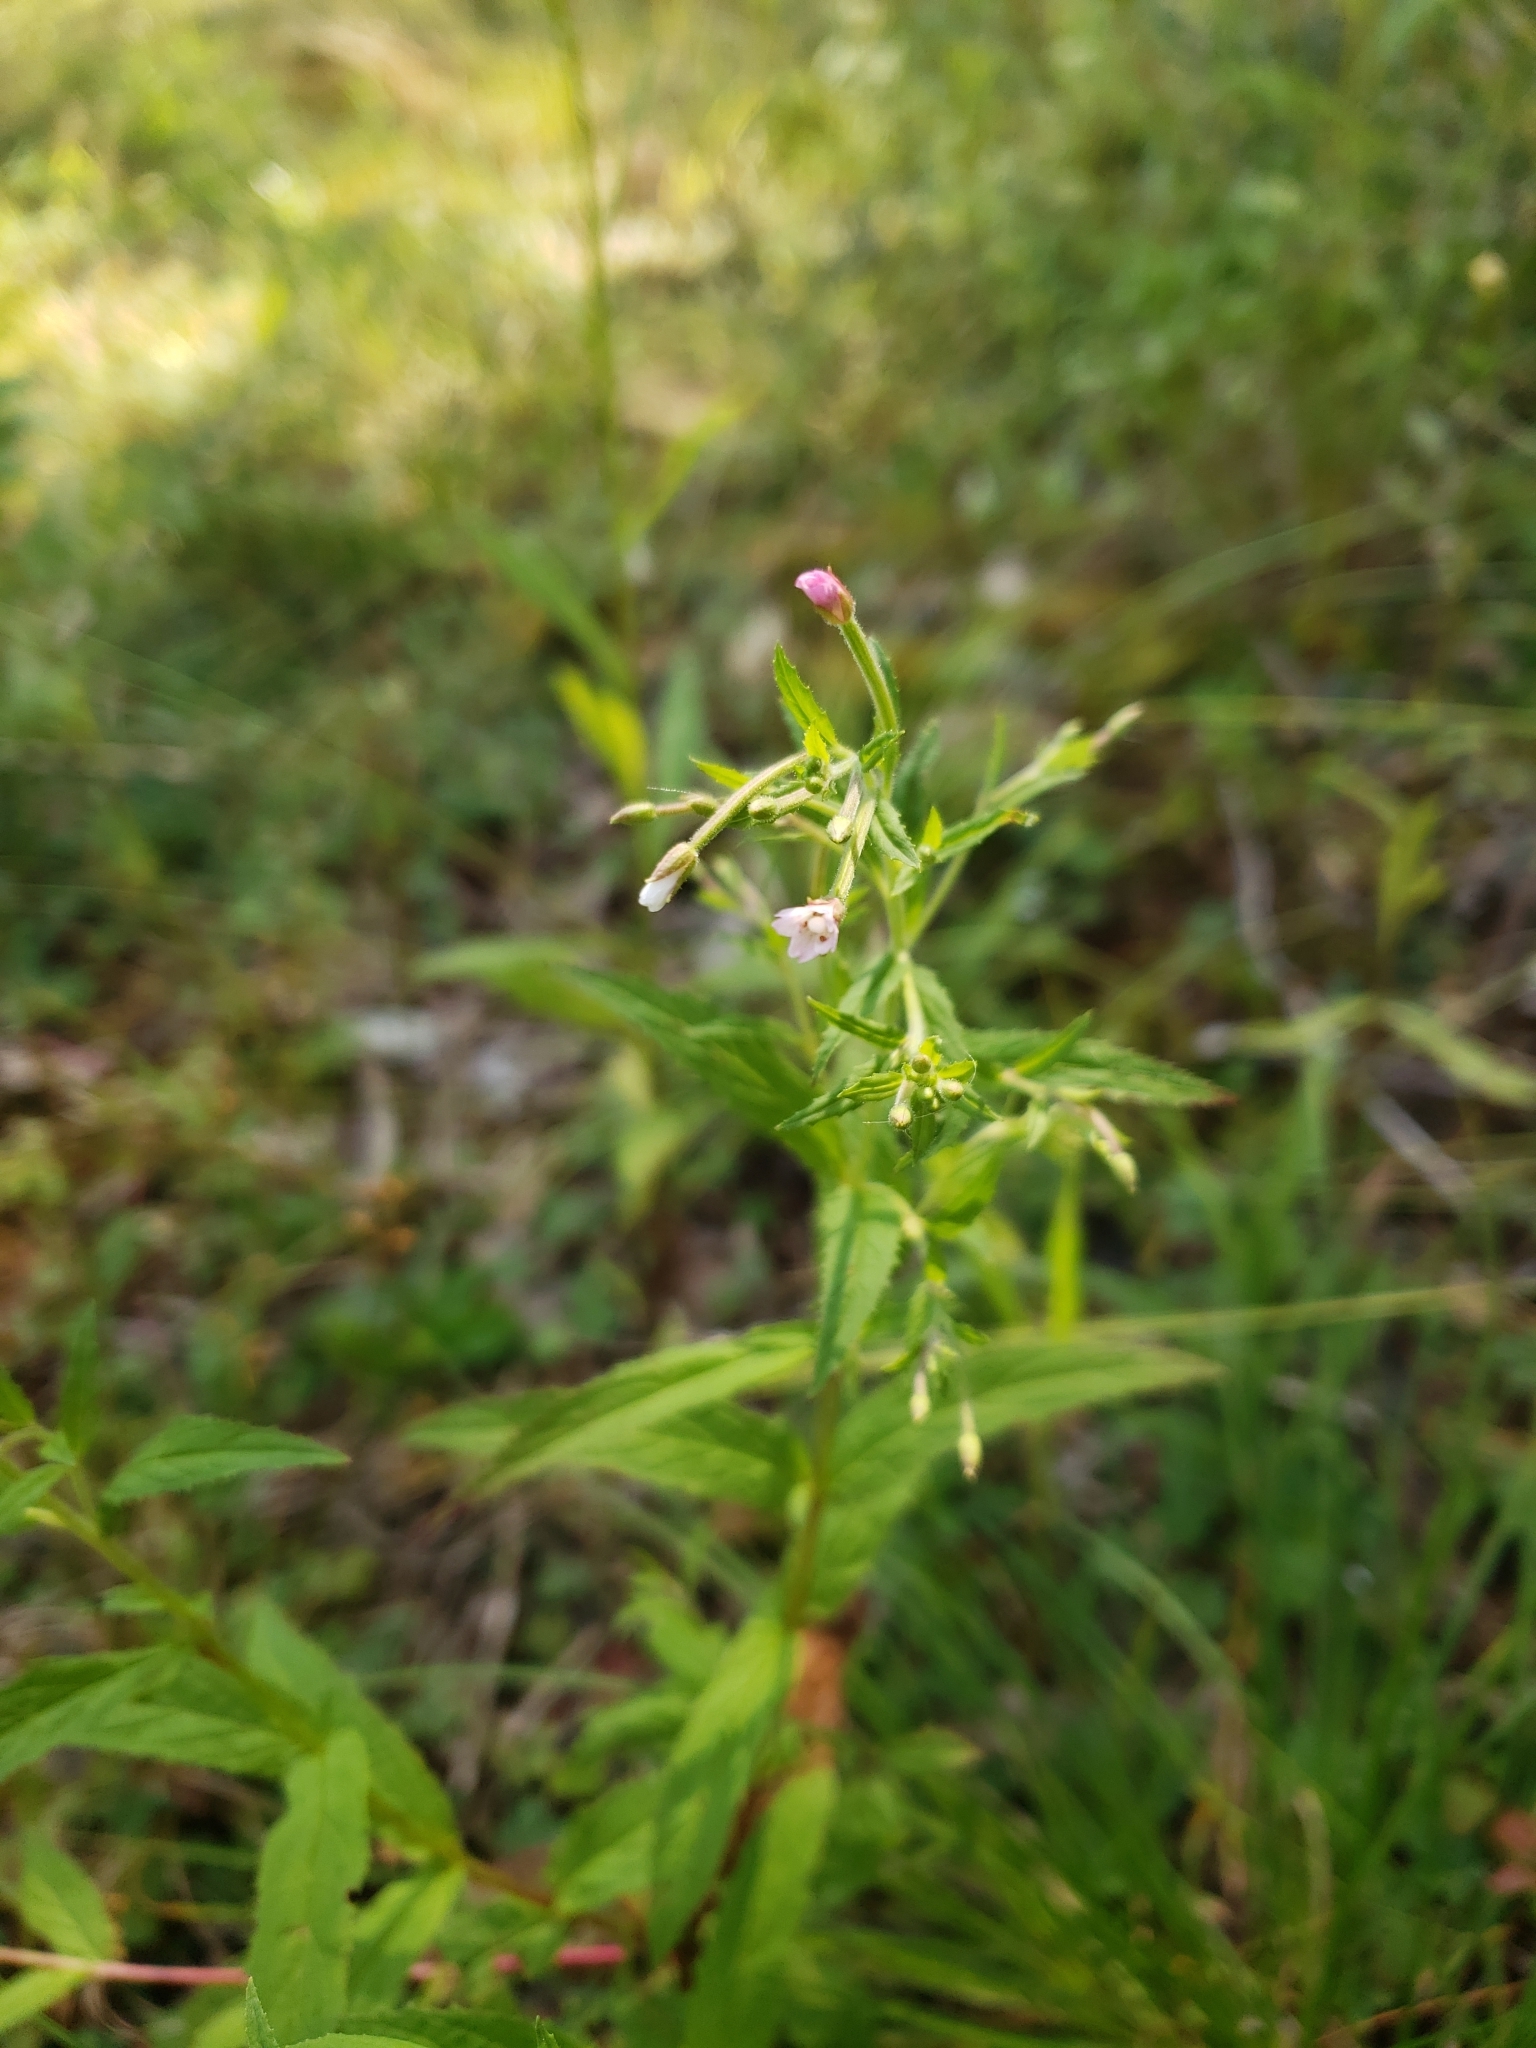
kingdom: Plantae
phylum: Tracheophyta
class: Magnoliopsida
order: Myrtales
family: Onagraceae
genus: Epilobium
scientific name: Epilobium coloratum
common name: Bronze willowherb
